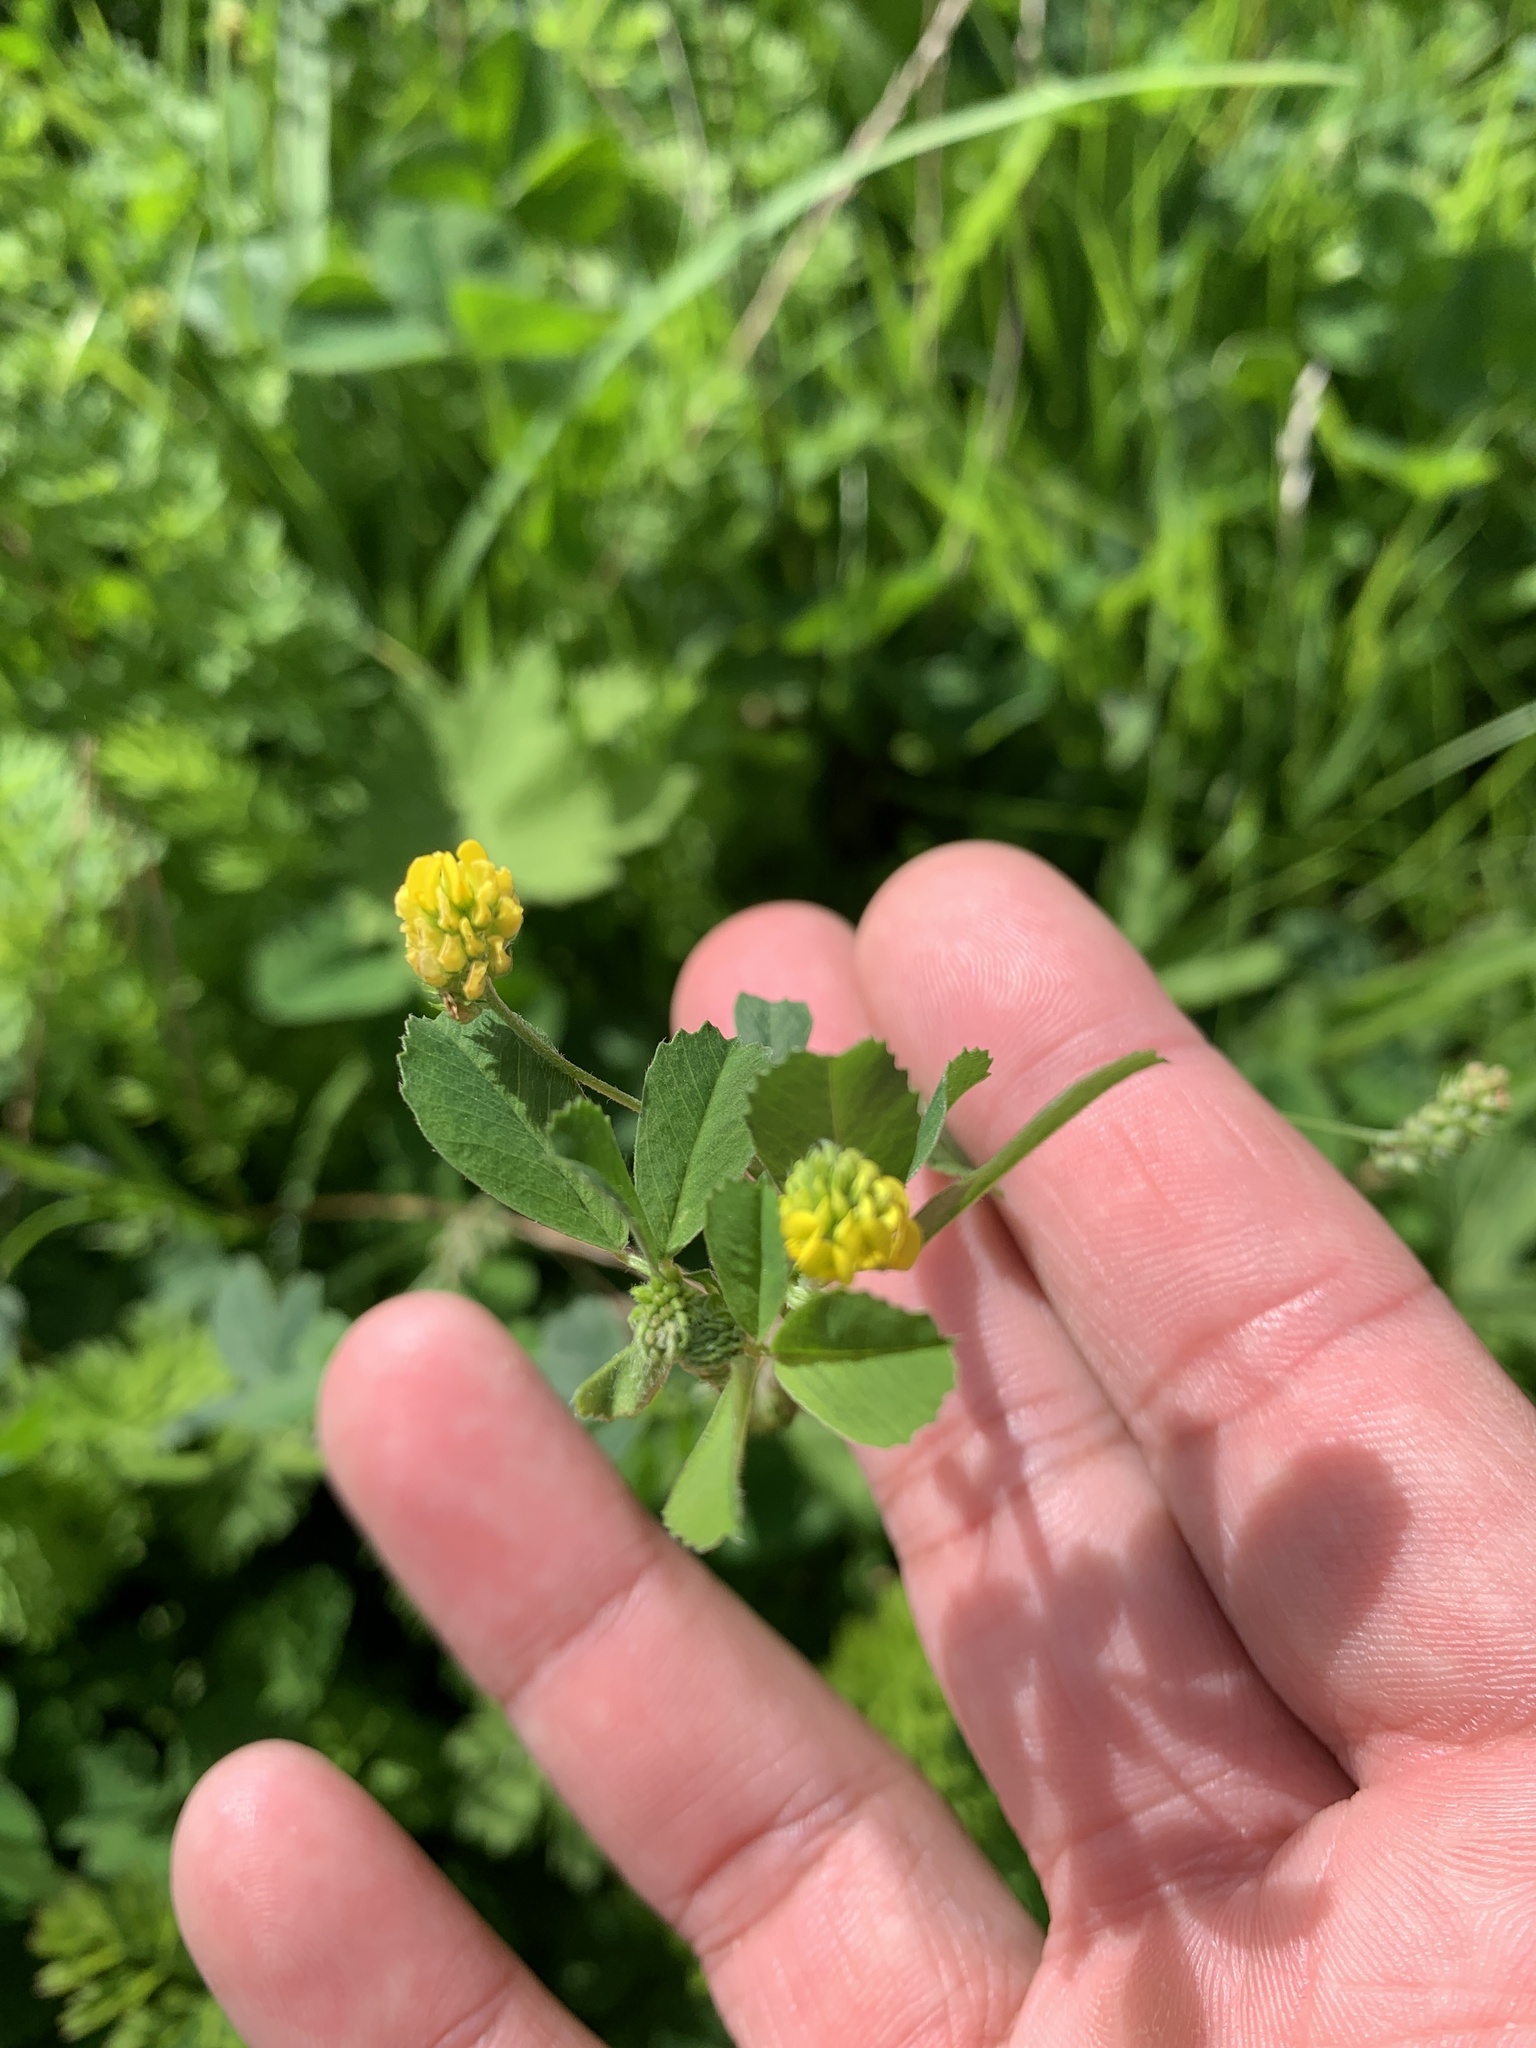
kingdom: Plantae
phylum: Tracheophyta
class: Magnoliopsida
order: Fabales
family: Fabaceae
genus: Medicago
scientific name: Medicago lupulina
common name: Black medick
